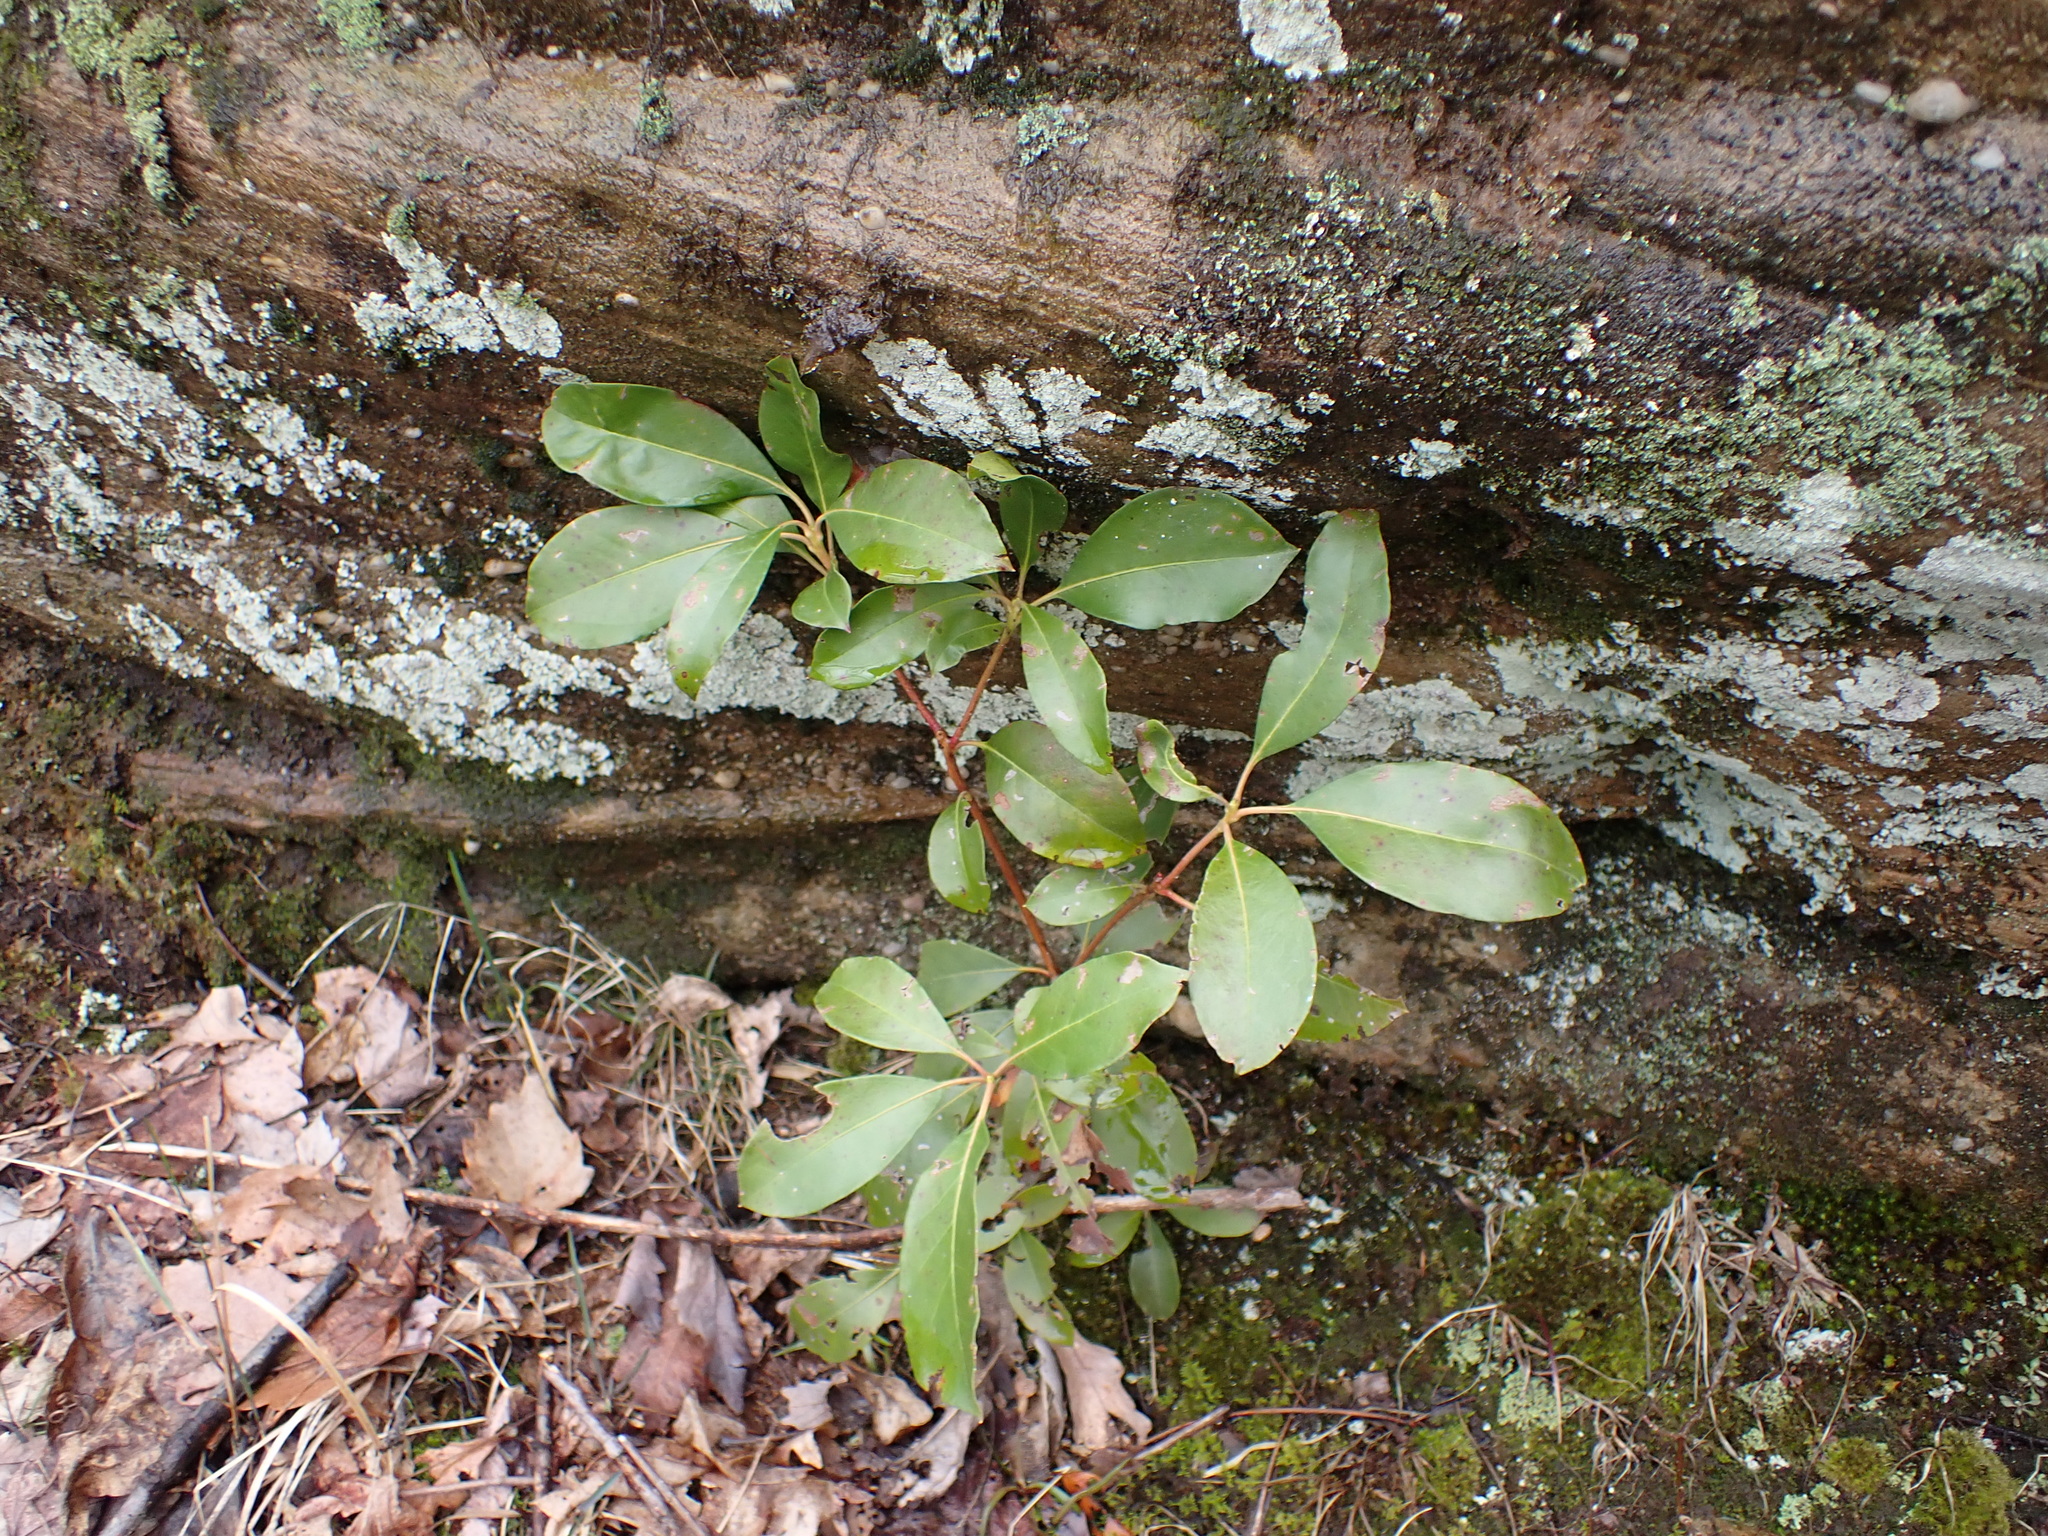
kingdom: Plantae
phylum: Tracheophyta
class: Magnoliopsida
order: Ericales
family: Ericaceae
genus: Kalmia
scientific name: Kalmia latifolia
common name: Mountain-laurel
